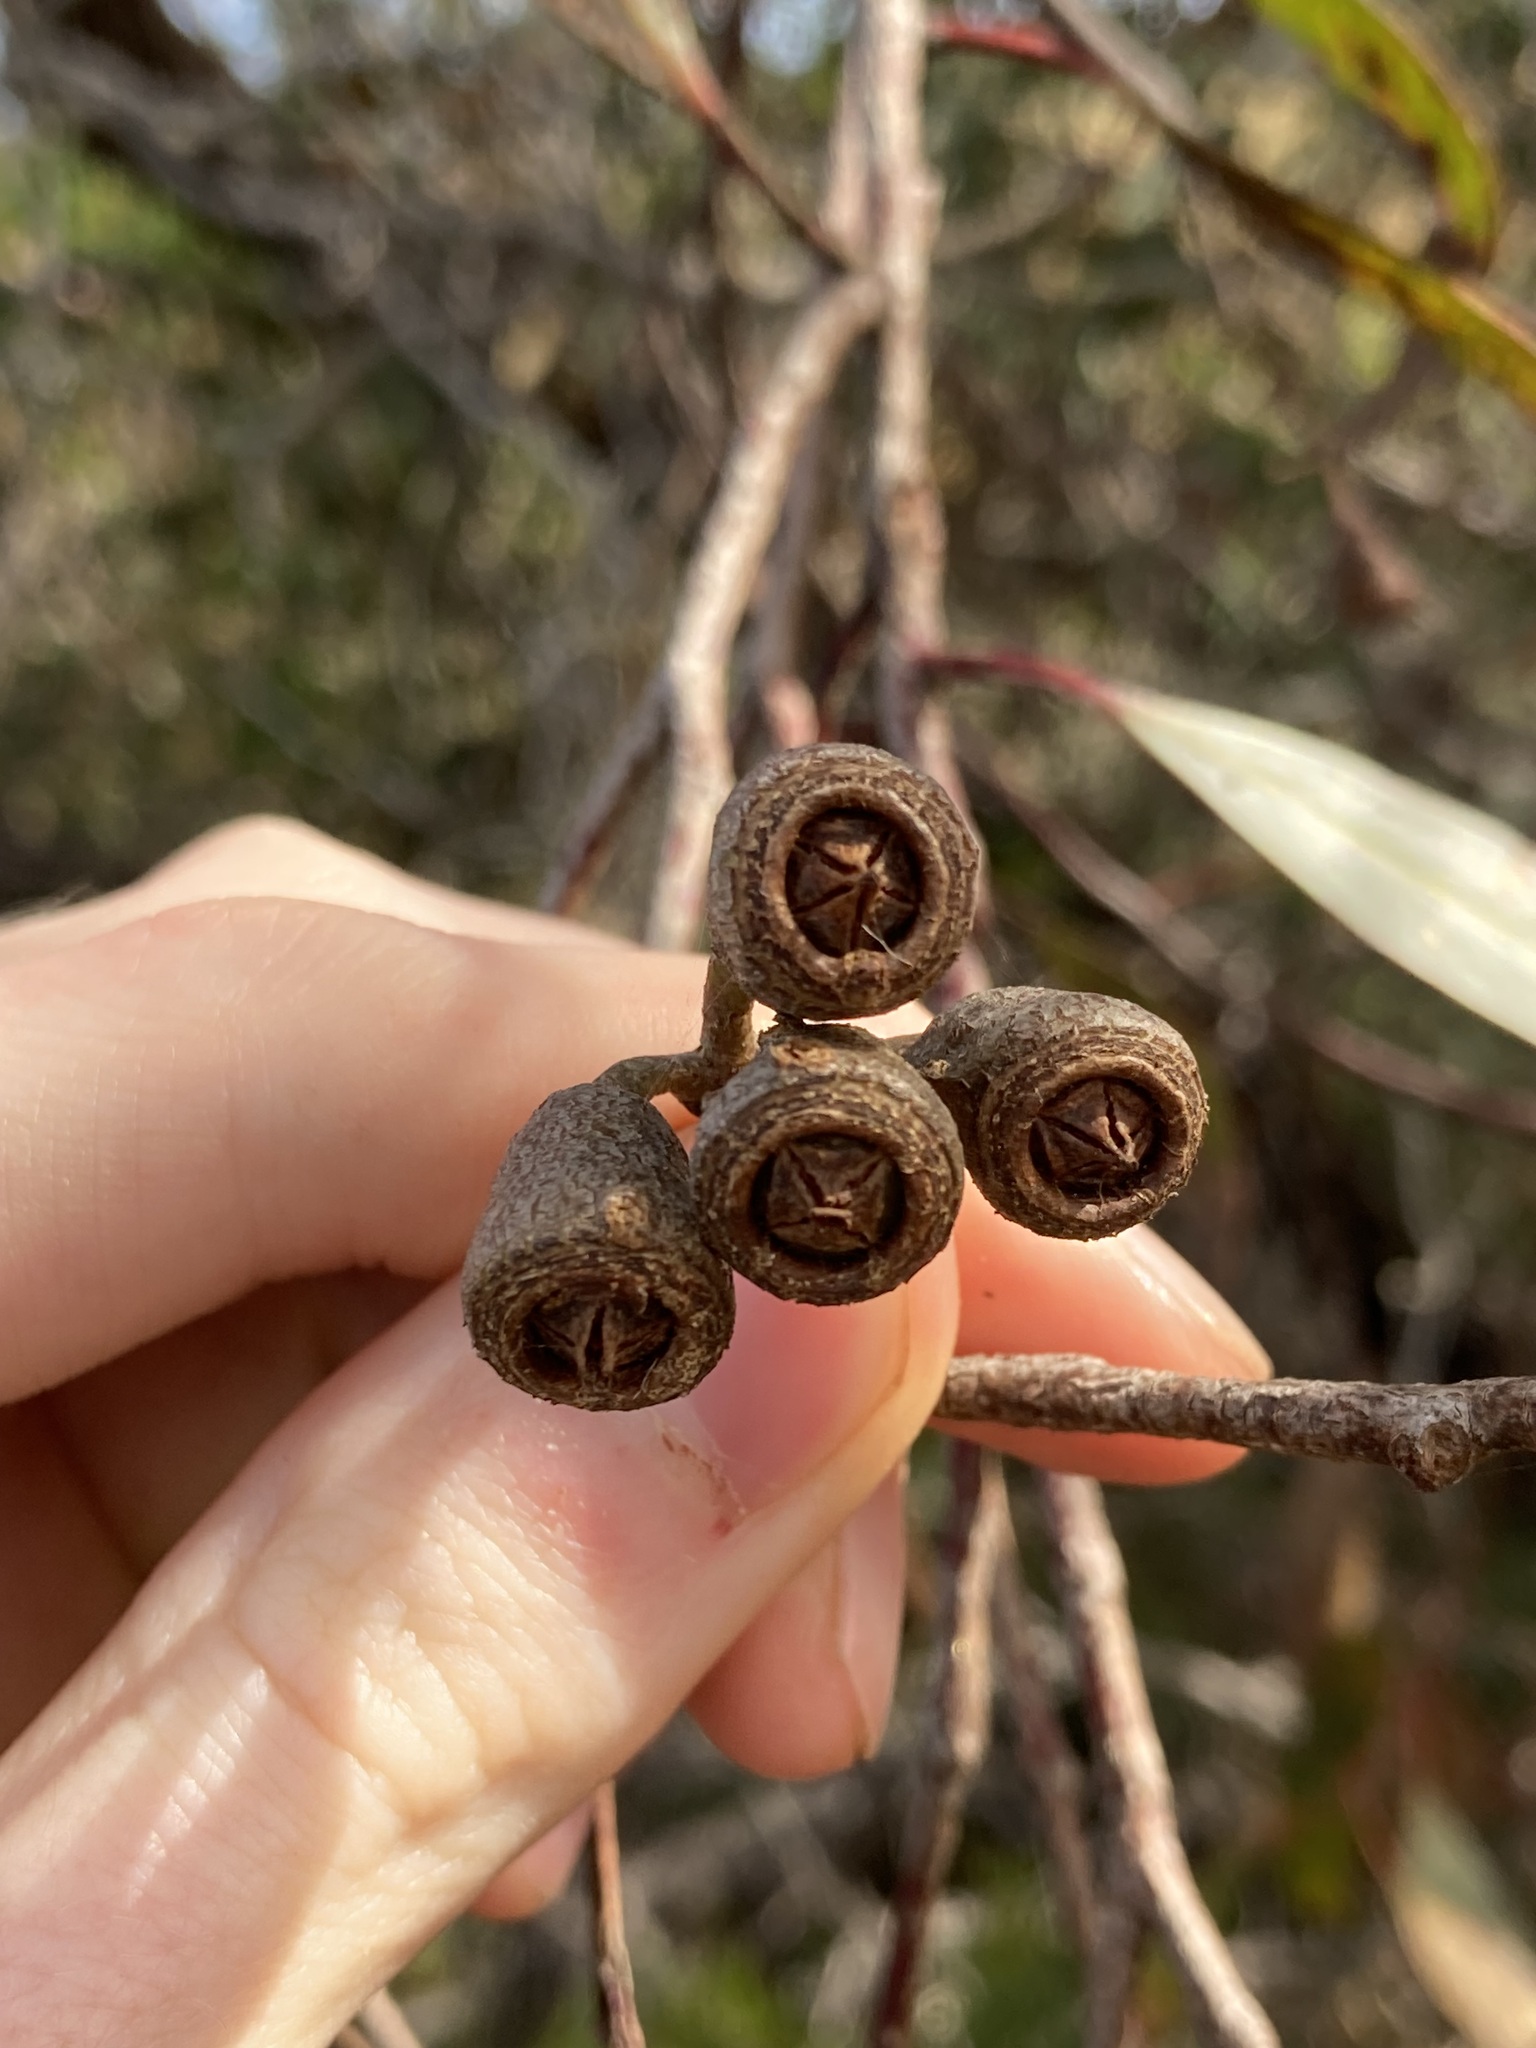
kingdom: Plantae
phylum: Tracheophyta
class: Magnoliopsida
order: Myrtales
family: Myrtaceae
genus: Eucalyptus
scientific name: Eucalyptus occidentalis
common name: Swamp yate
